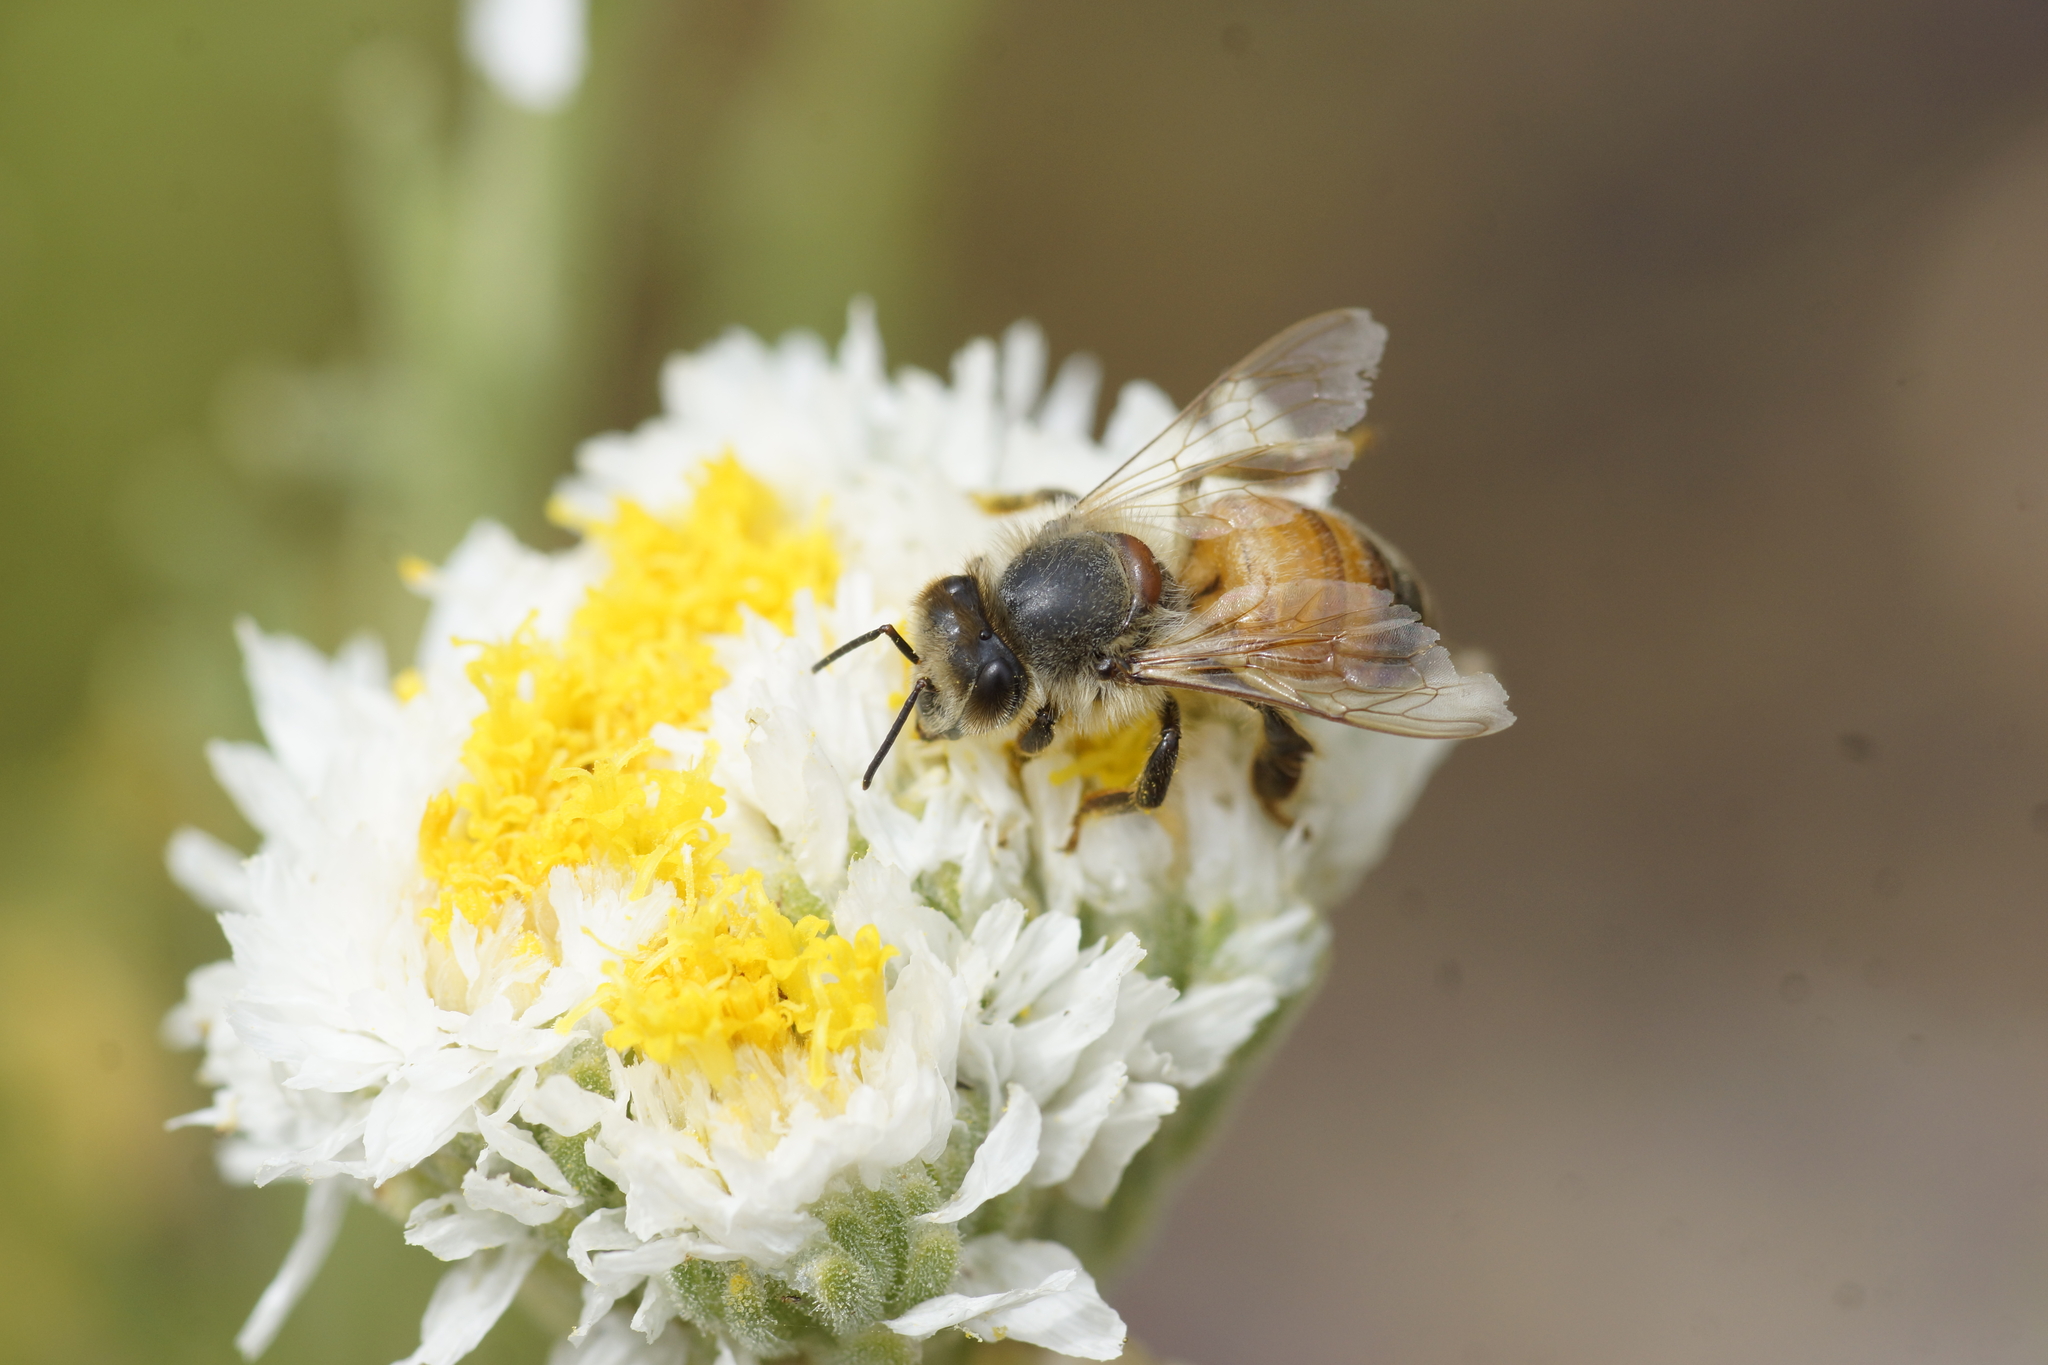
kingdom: Animalia
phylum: Arthropoda
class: Insecta
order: Hymenoptera
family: Apidae
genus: Apis
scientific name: Apis mellifera
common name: Honey bee
